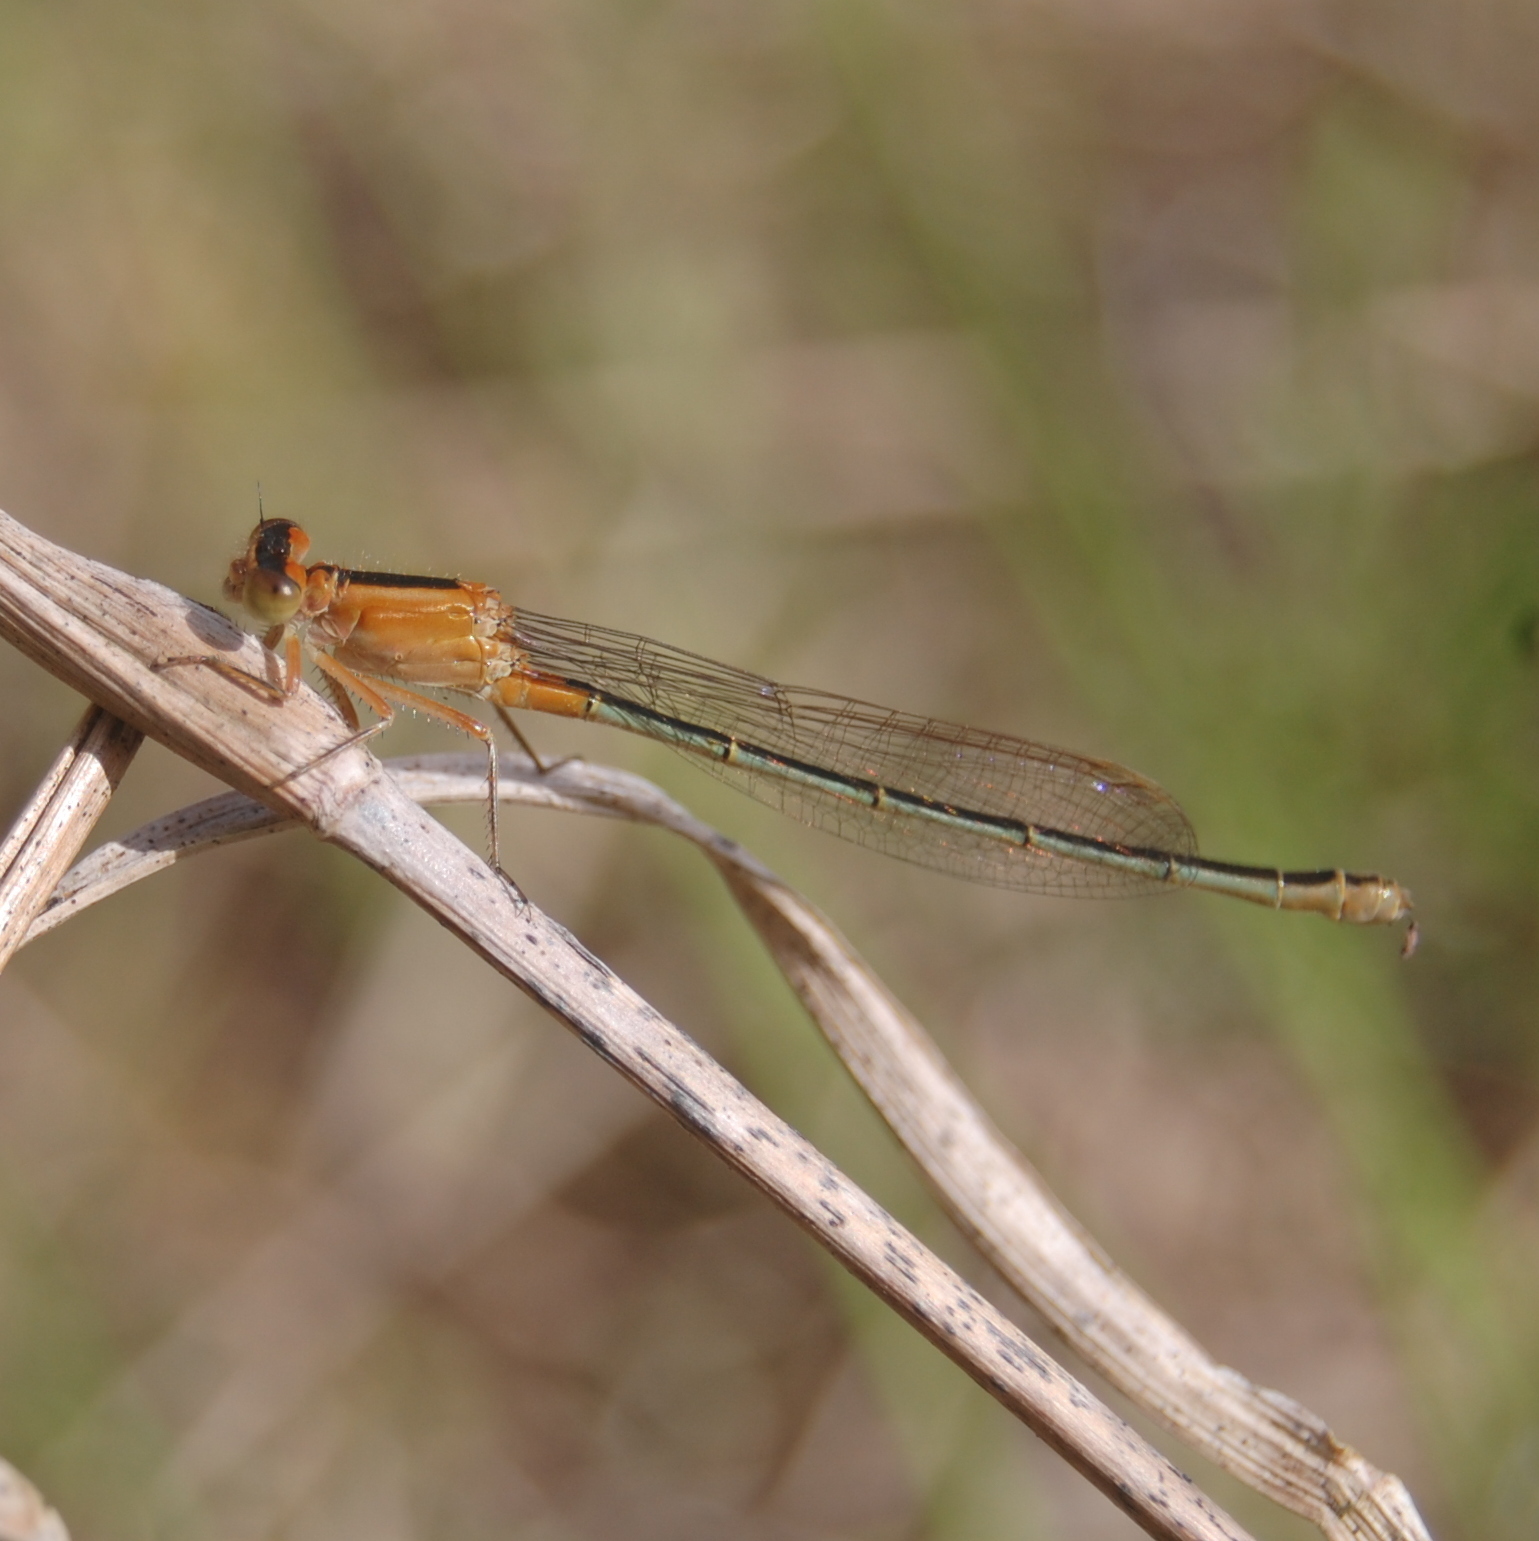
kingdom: Animalia
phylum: Arthropoda
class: Insecta
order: Odonata
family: Coenagrionidae
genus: Ischnura
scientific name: Ischnura fluviatilis
